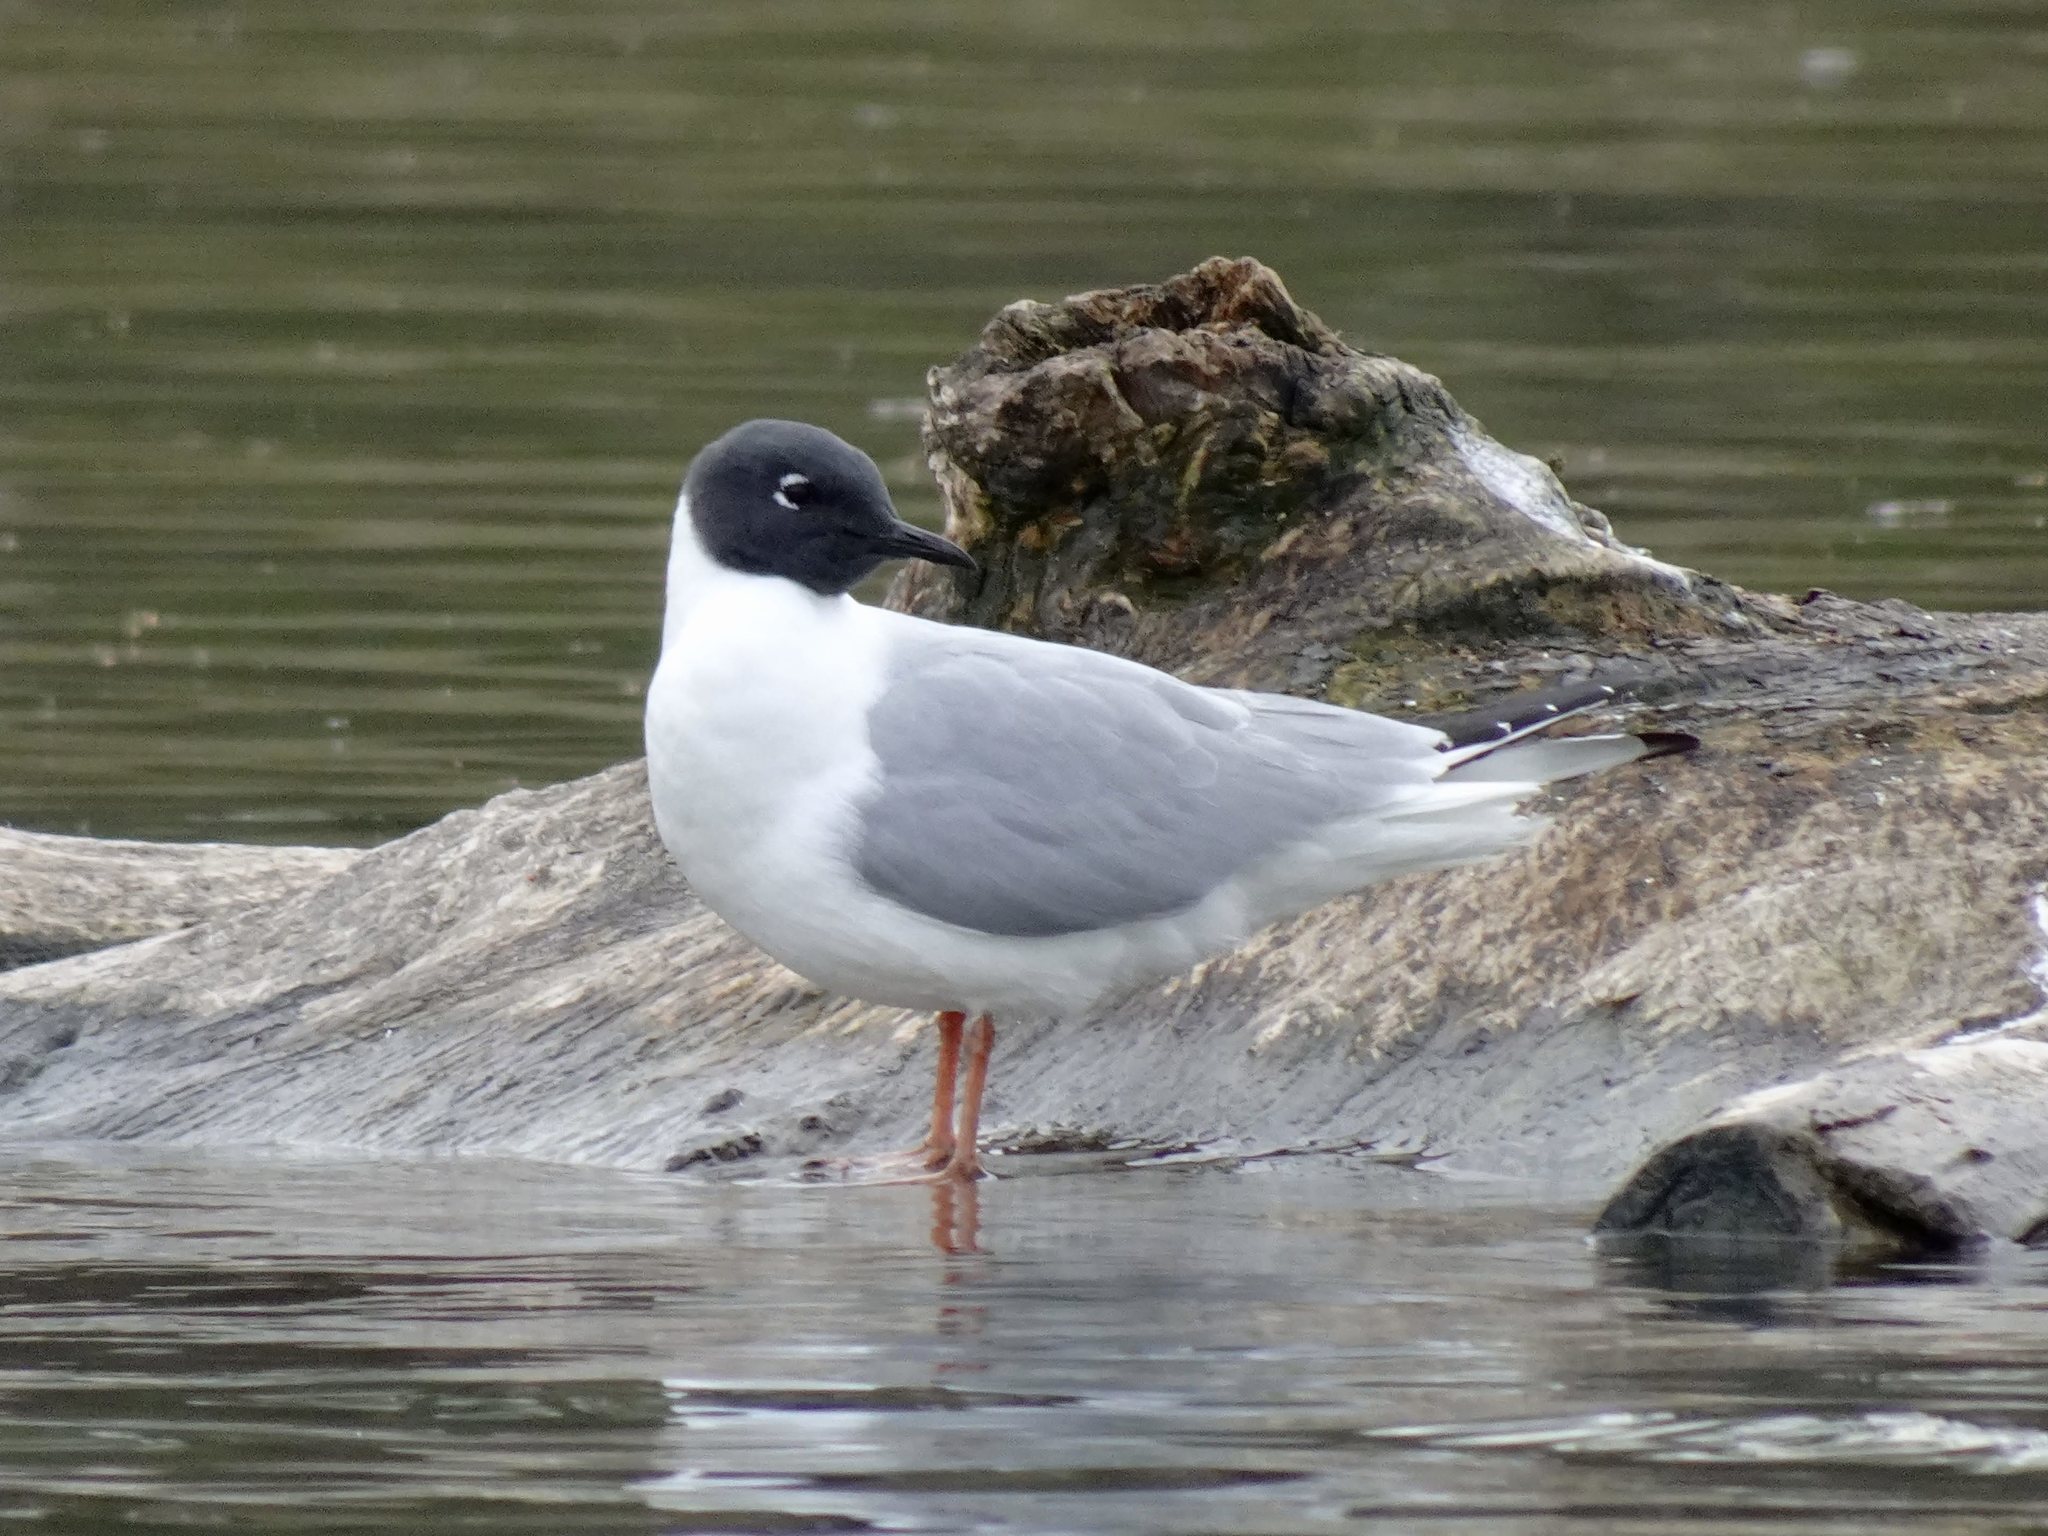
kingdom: Animalia
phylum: Chordata
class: Aves
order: Charadriiformes
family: Laridae
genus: Chroicocephalus
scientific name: Chroicocephalus philadelphia
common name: Bonaparte's gull
